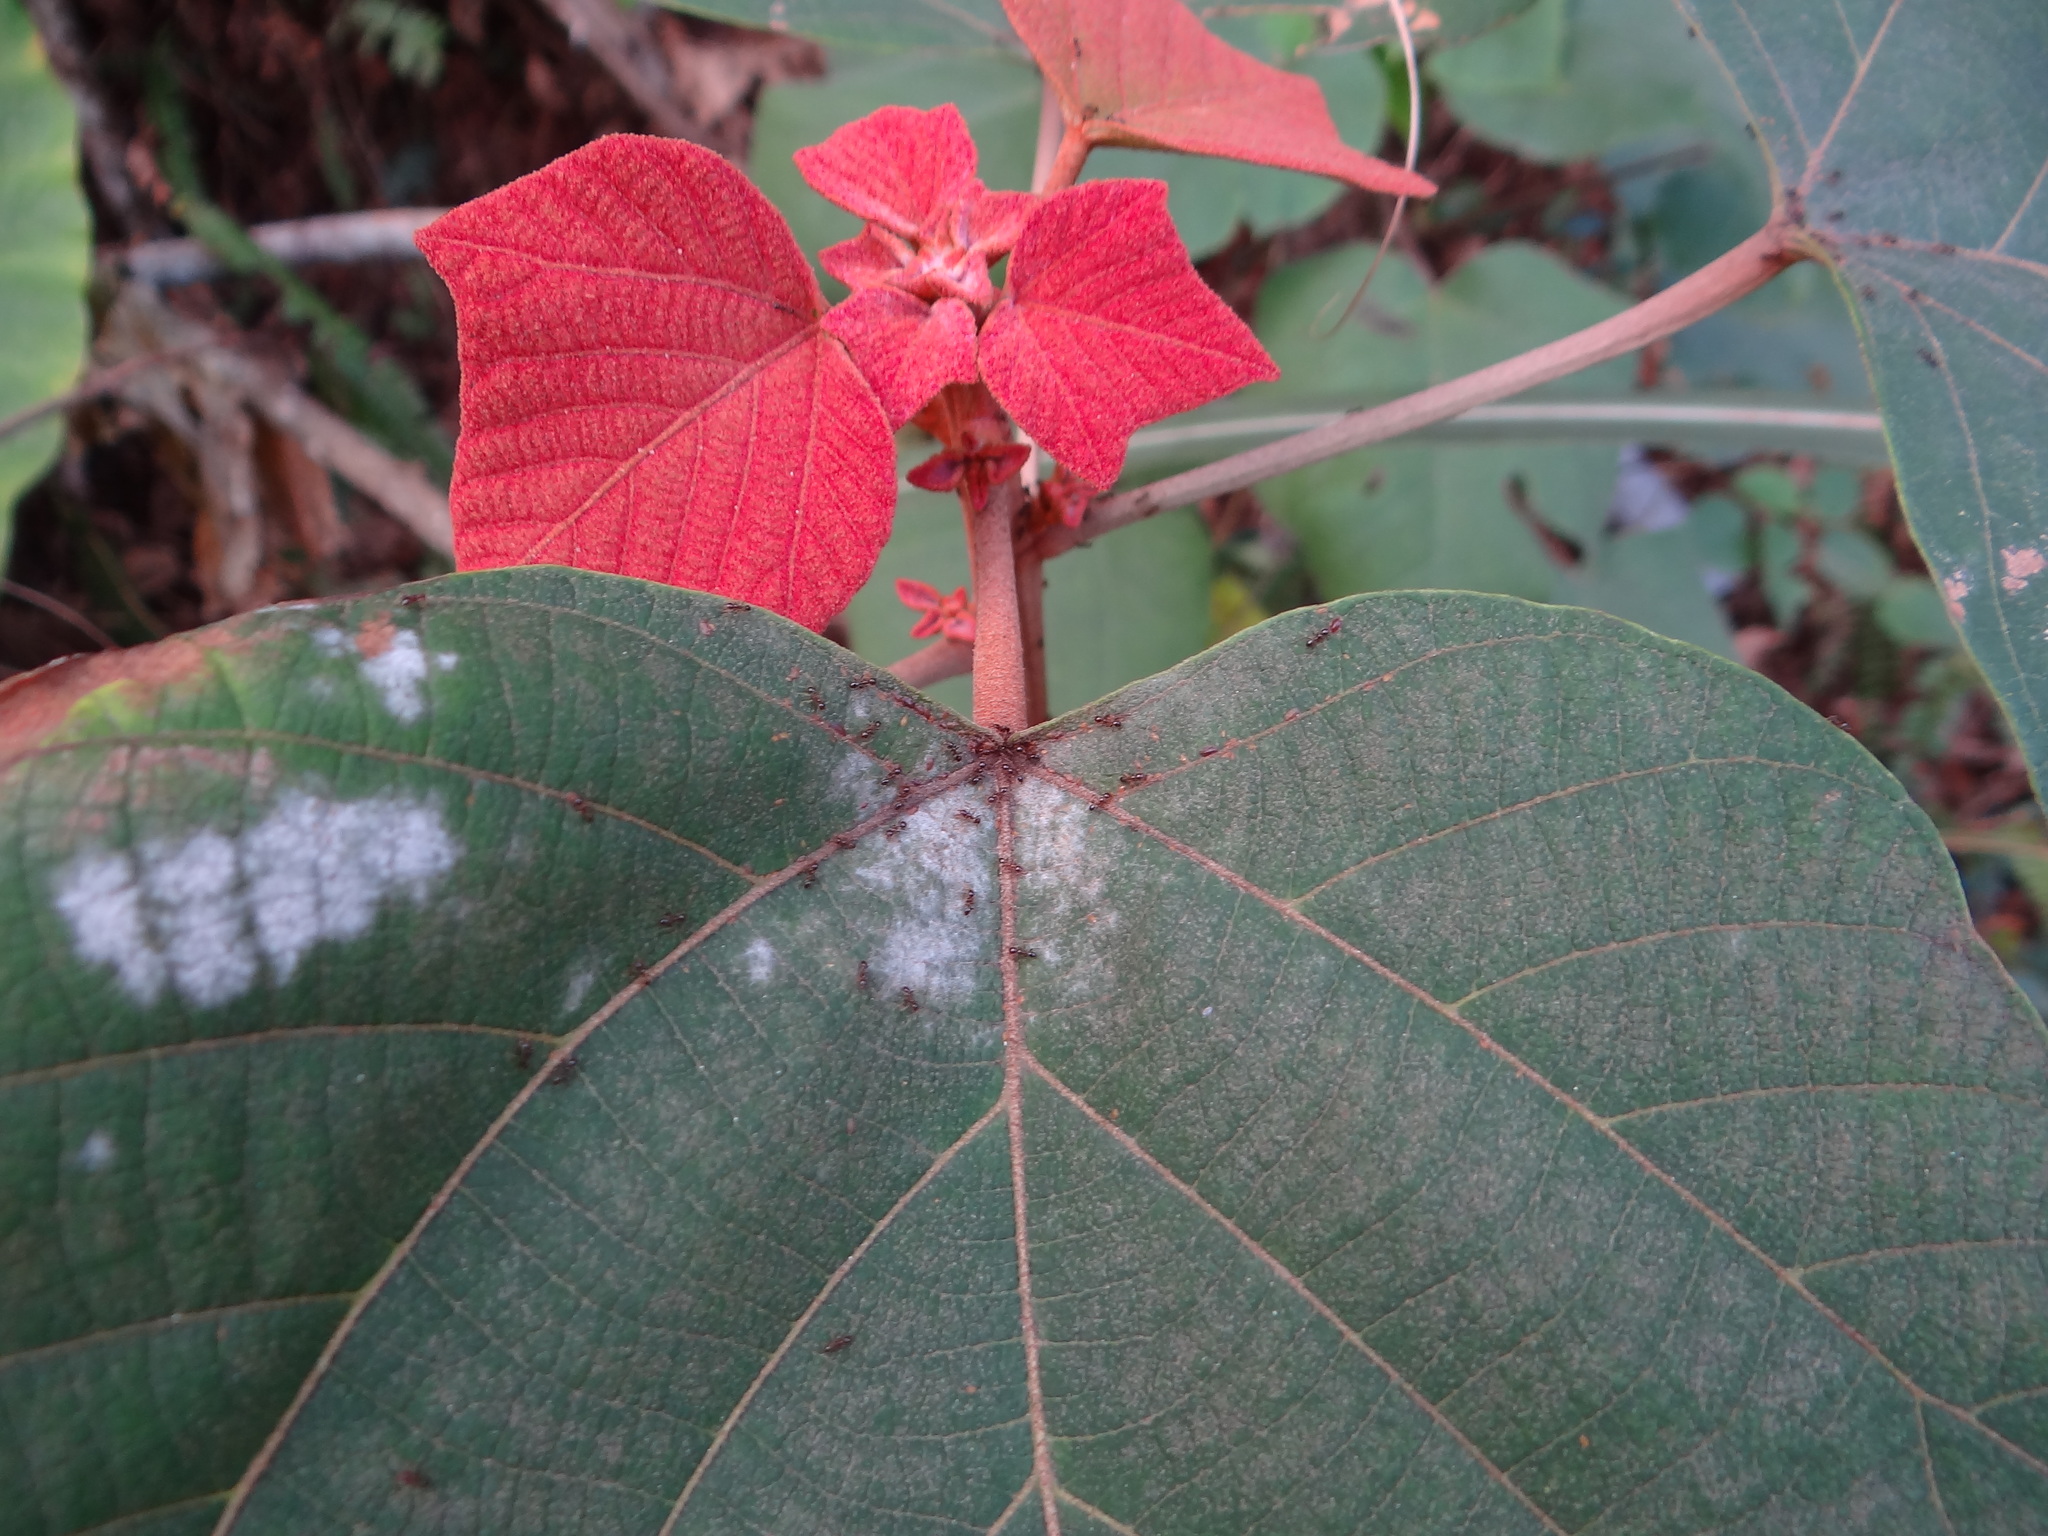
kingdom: Plantae
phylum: Tracheophyta
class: Magnoliopsida
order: Malpighiales
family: Euphorbiaceae
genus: Mallotus
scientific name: Mallotus japonicus
